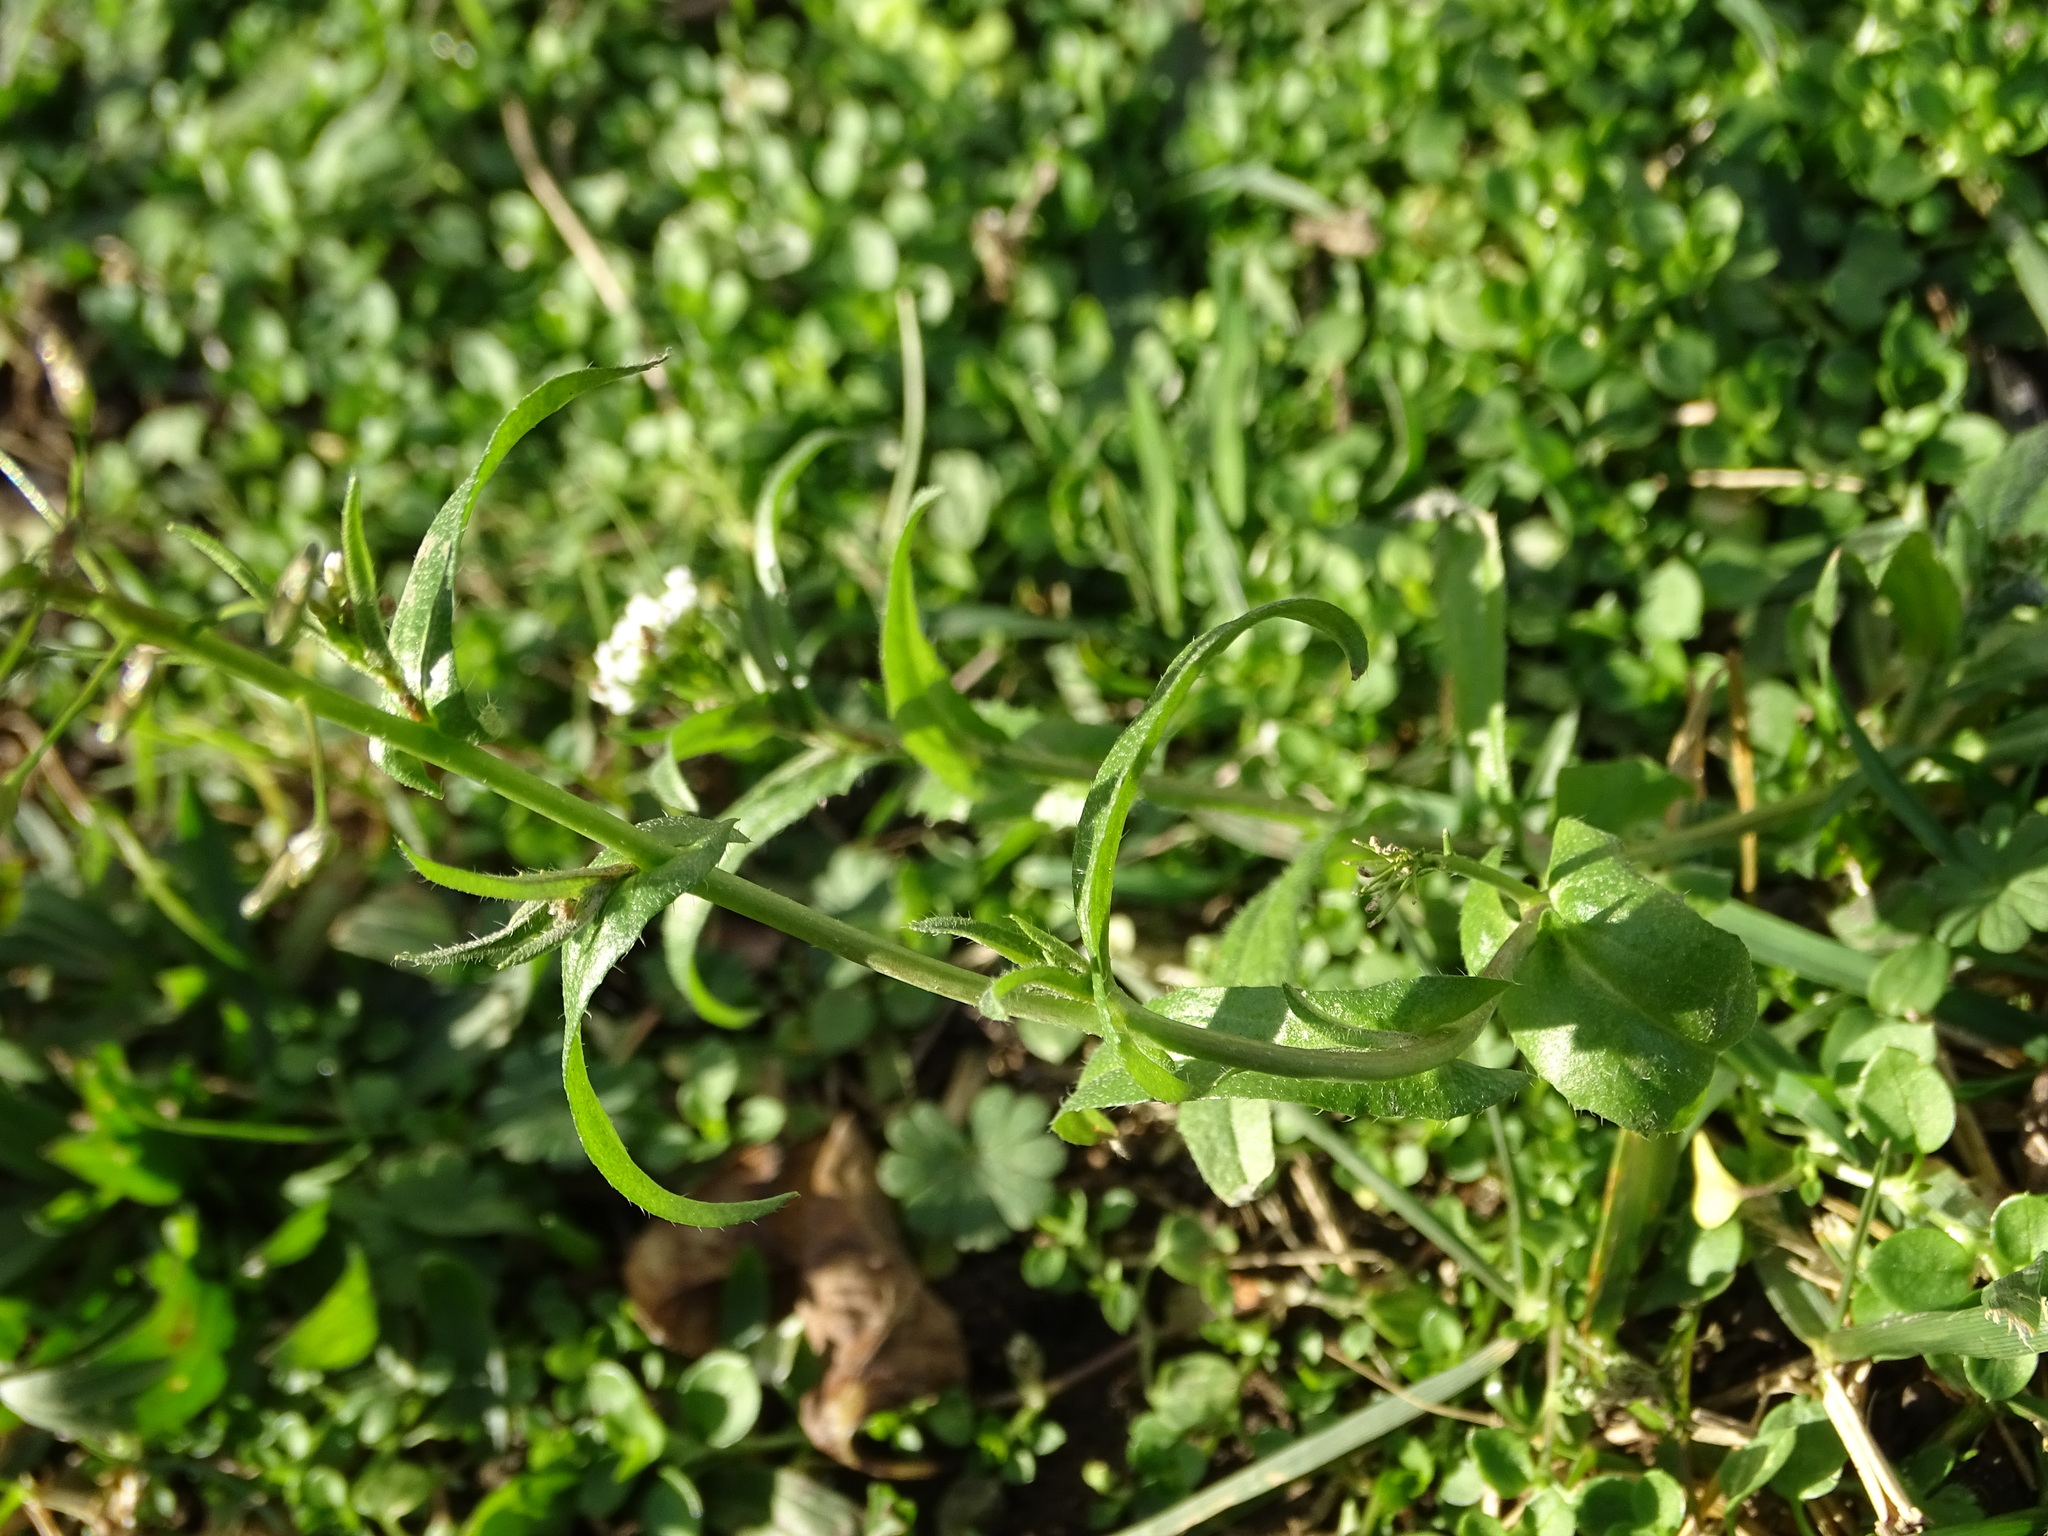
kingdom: Plantae
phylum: Tracheophyta
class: Magnoliopsida
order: Brassicales
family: Brassicaceae
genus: Capsella
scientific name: Capsella bursa-pastoris
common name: Shepherd's purse
